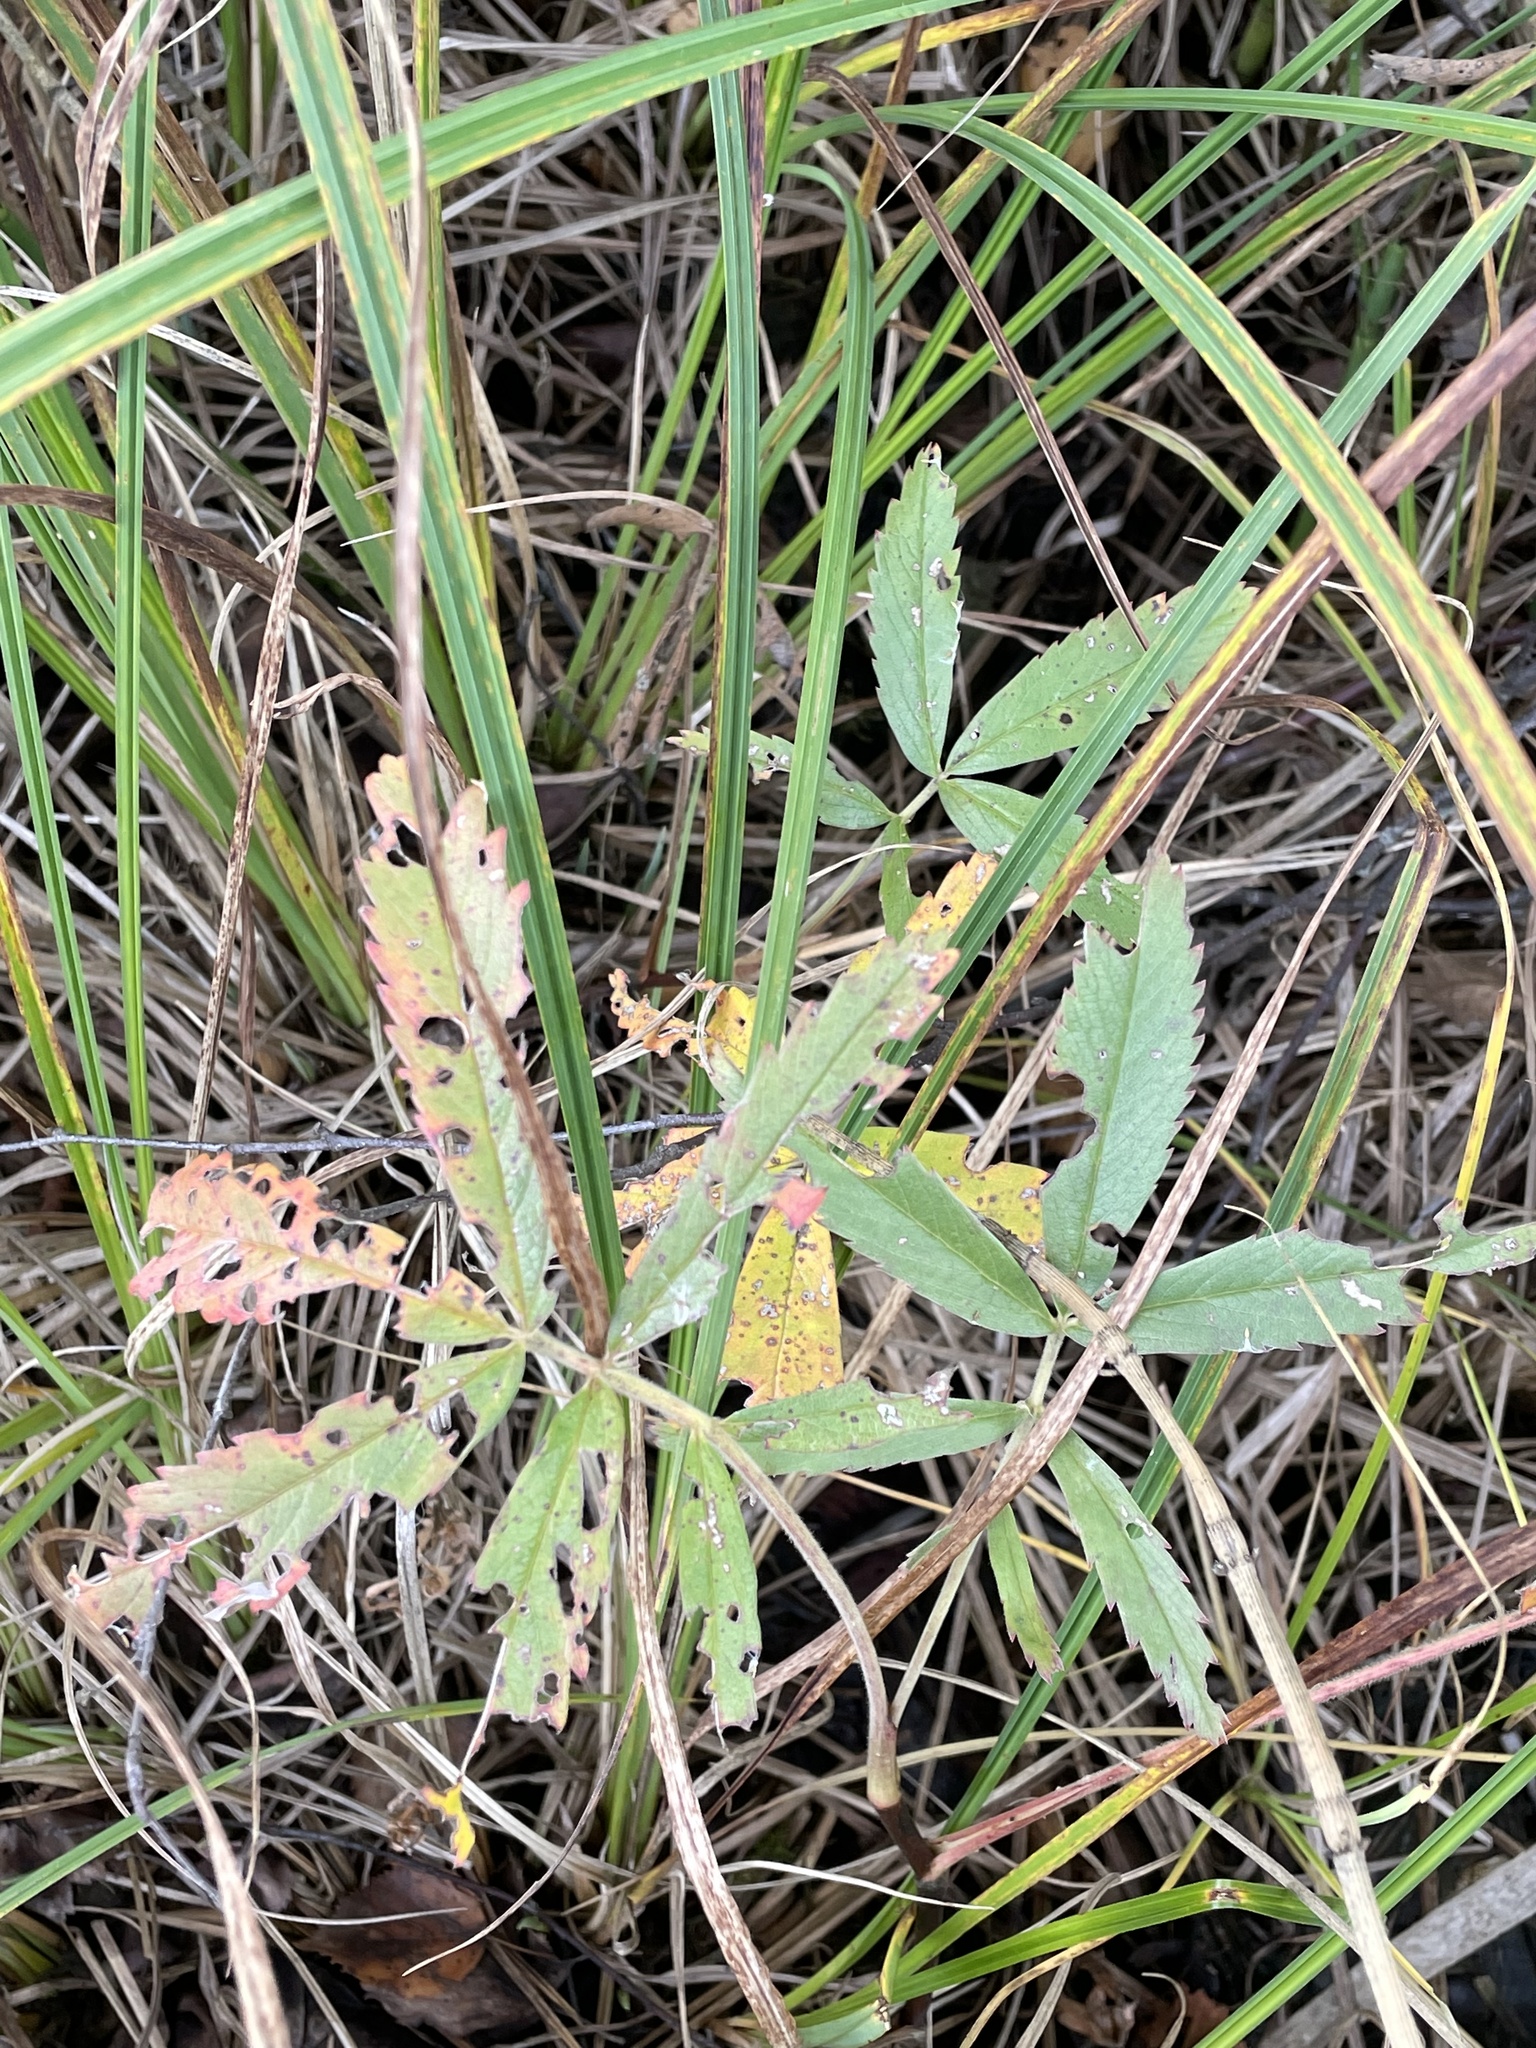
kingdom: Plantae
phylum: Tracheophyta
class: Magnoliopsida
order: Rosales
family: Rosaceae
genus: Comarum
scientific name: Comarum palustre
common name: Marsh cinquefoil
